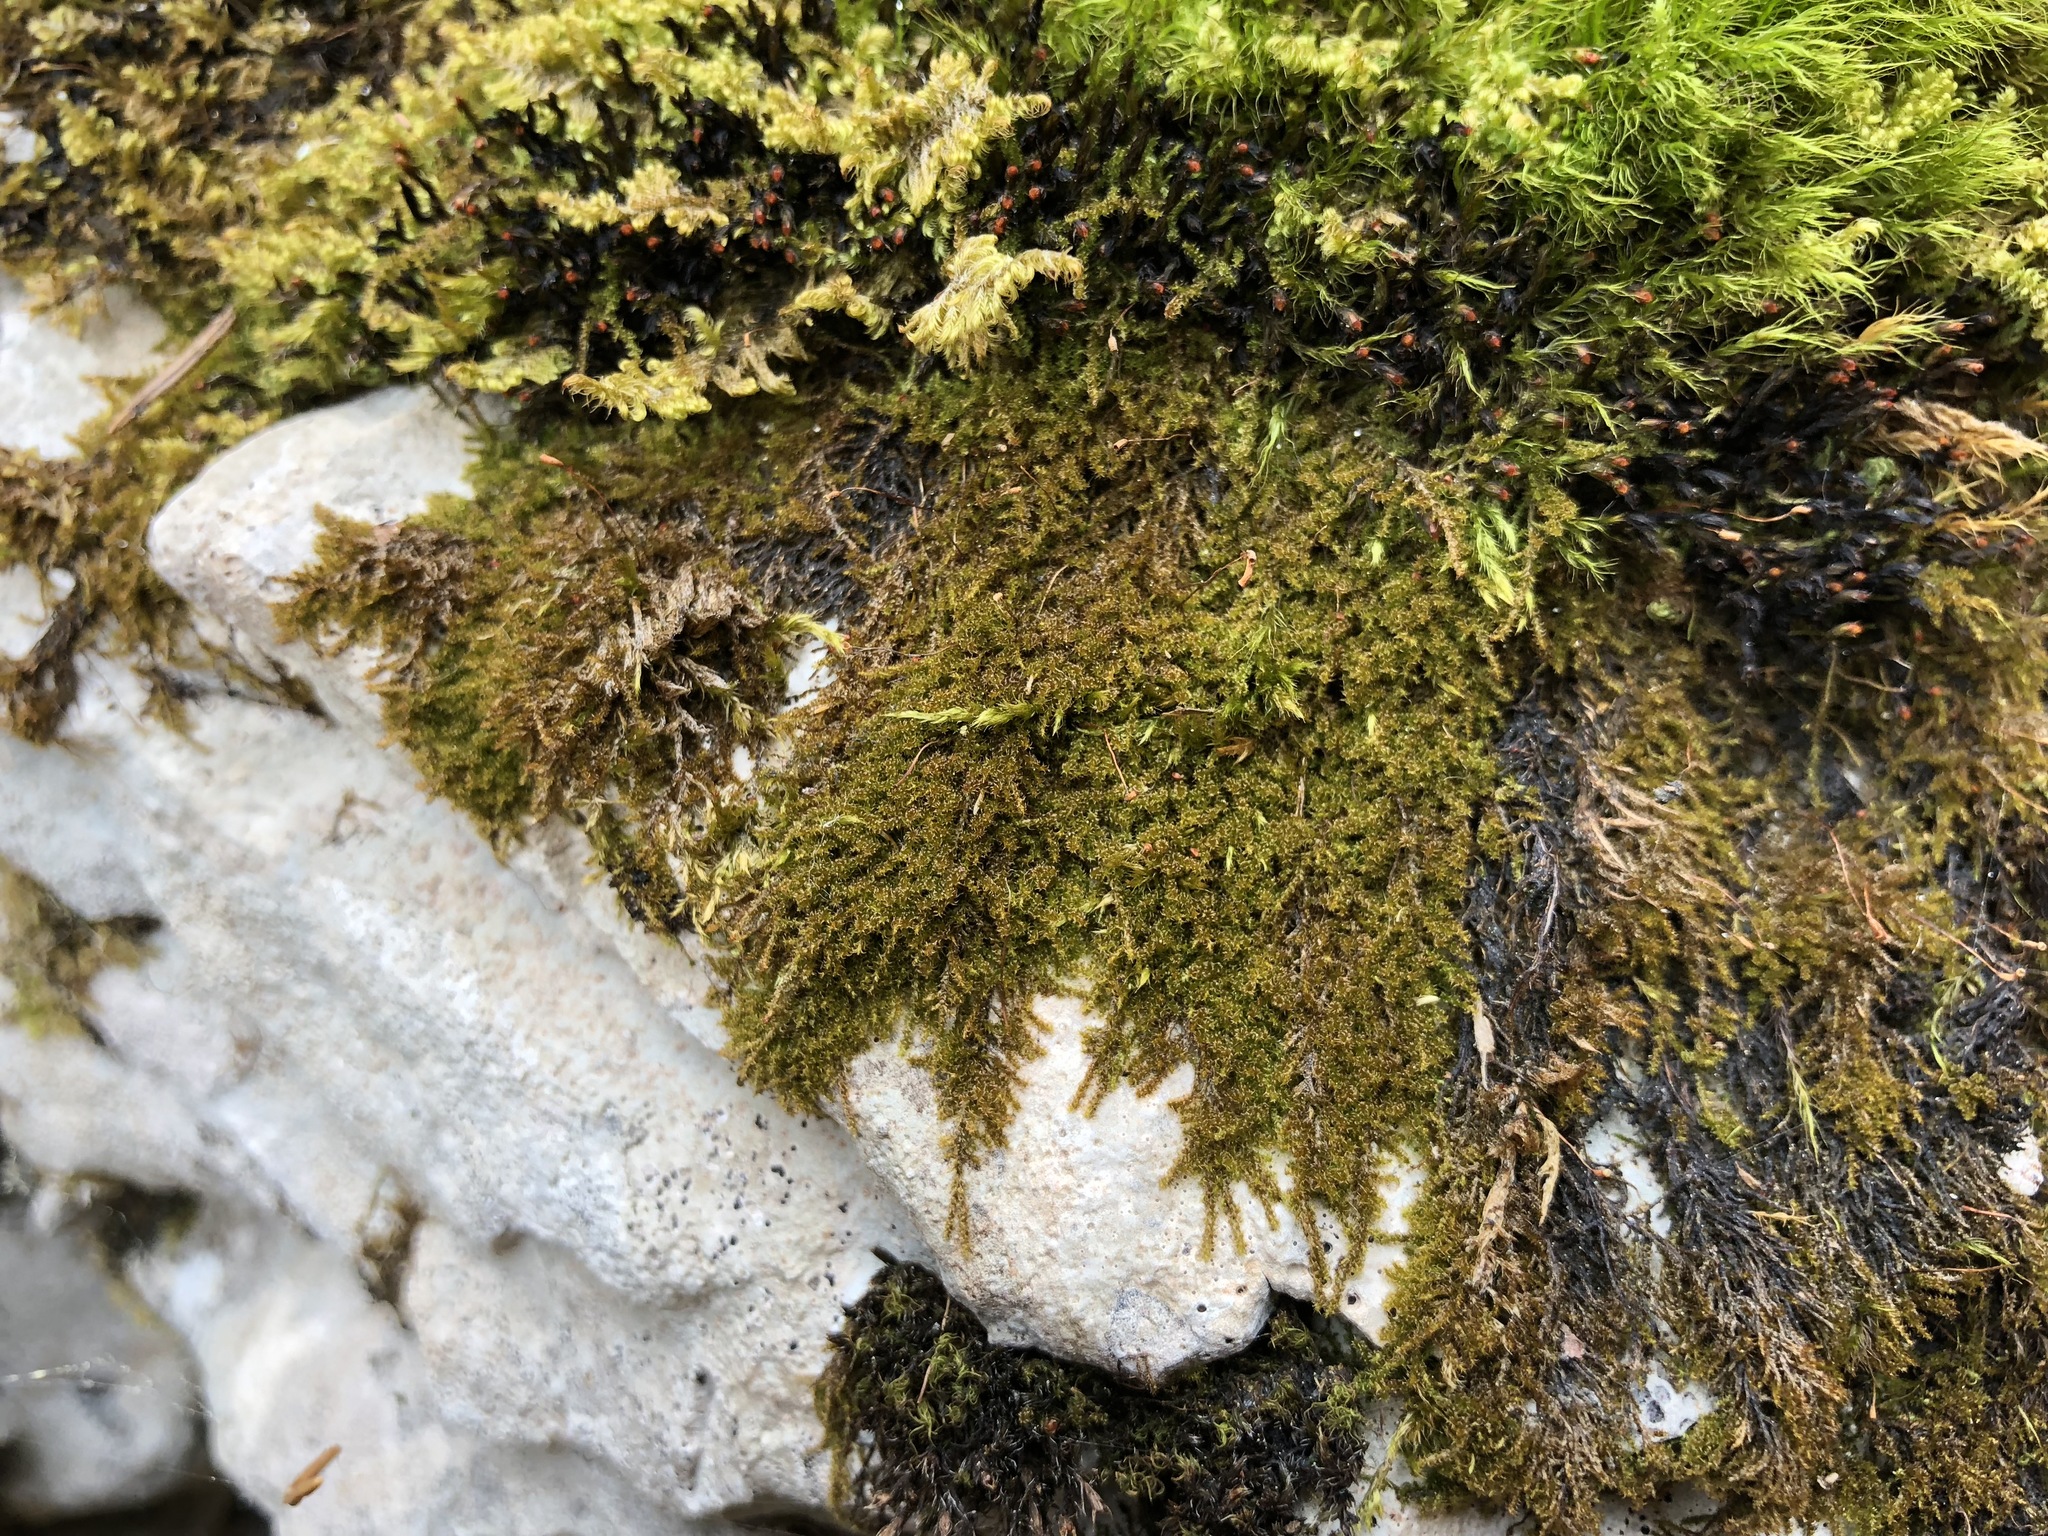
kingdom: Plantae
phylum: Bryophyta
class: Bryopsida
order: Hypnales
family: Amblystegiaceae
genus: Campylophyllum
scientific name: Campylophyllum halleri
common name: Haller's fine wet moss
